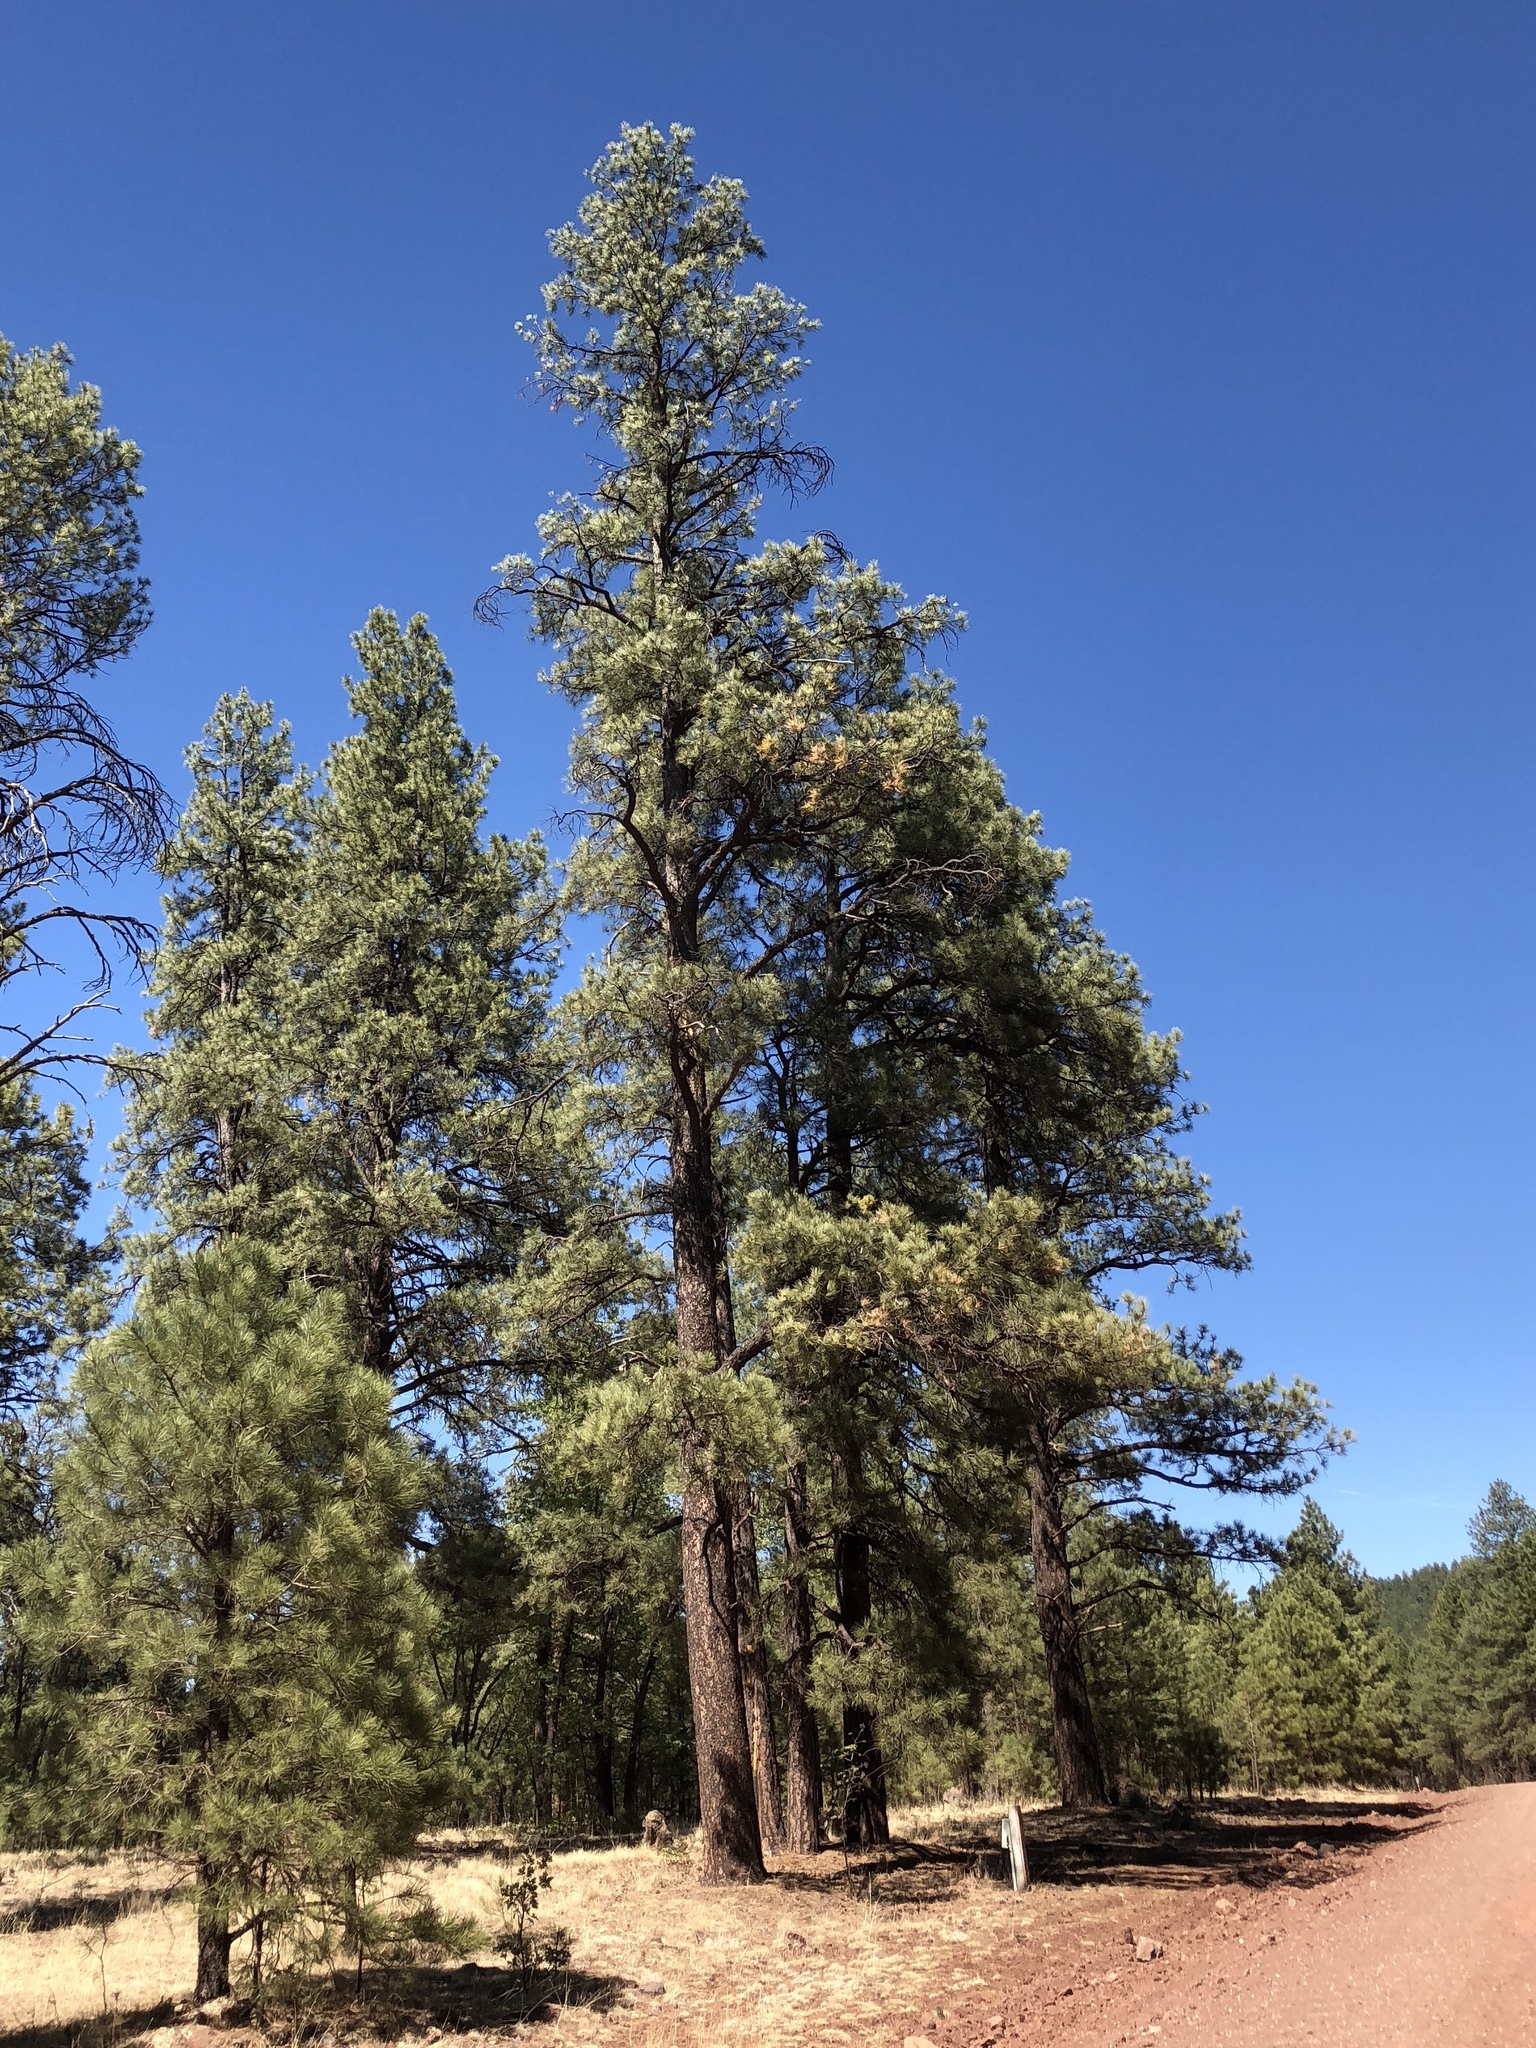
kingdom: Plantae
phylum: Tracheophyta
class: Pinopsida
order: Pinales
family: Pinaceae
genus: Pinus
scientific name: Pinus ponderosa
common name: Western yellow-pine
